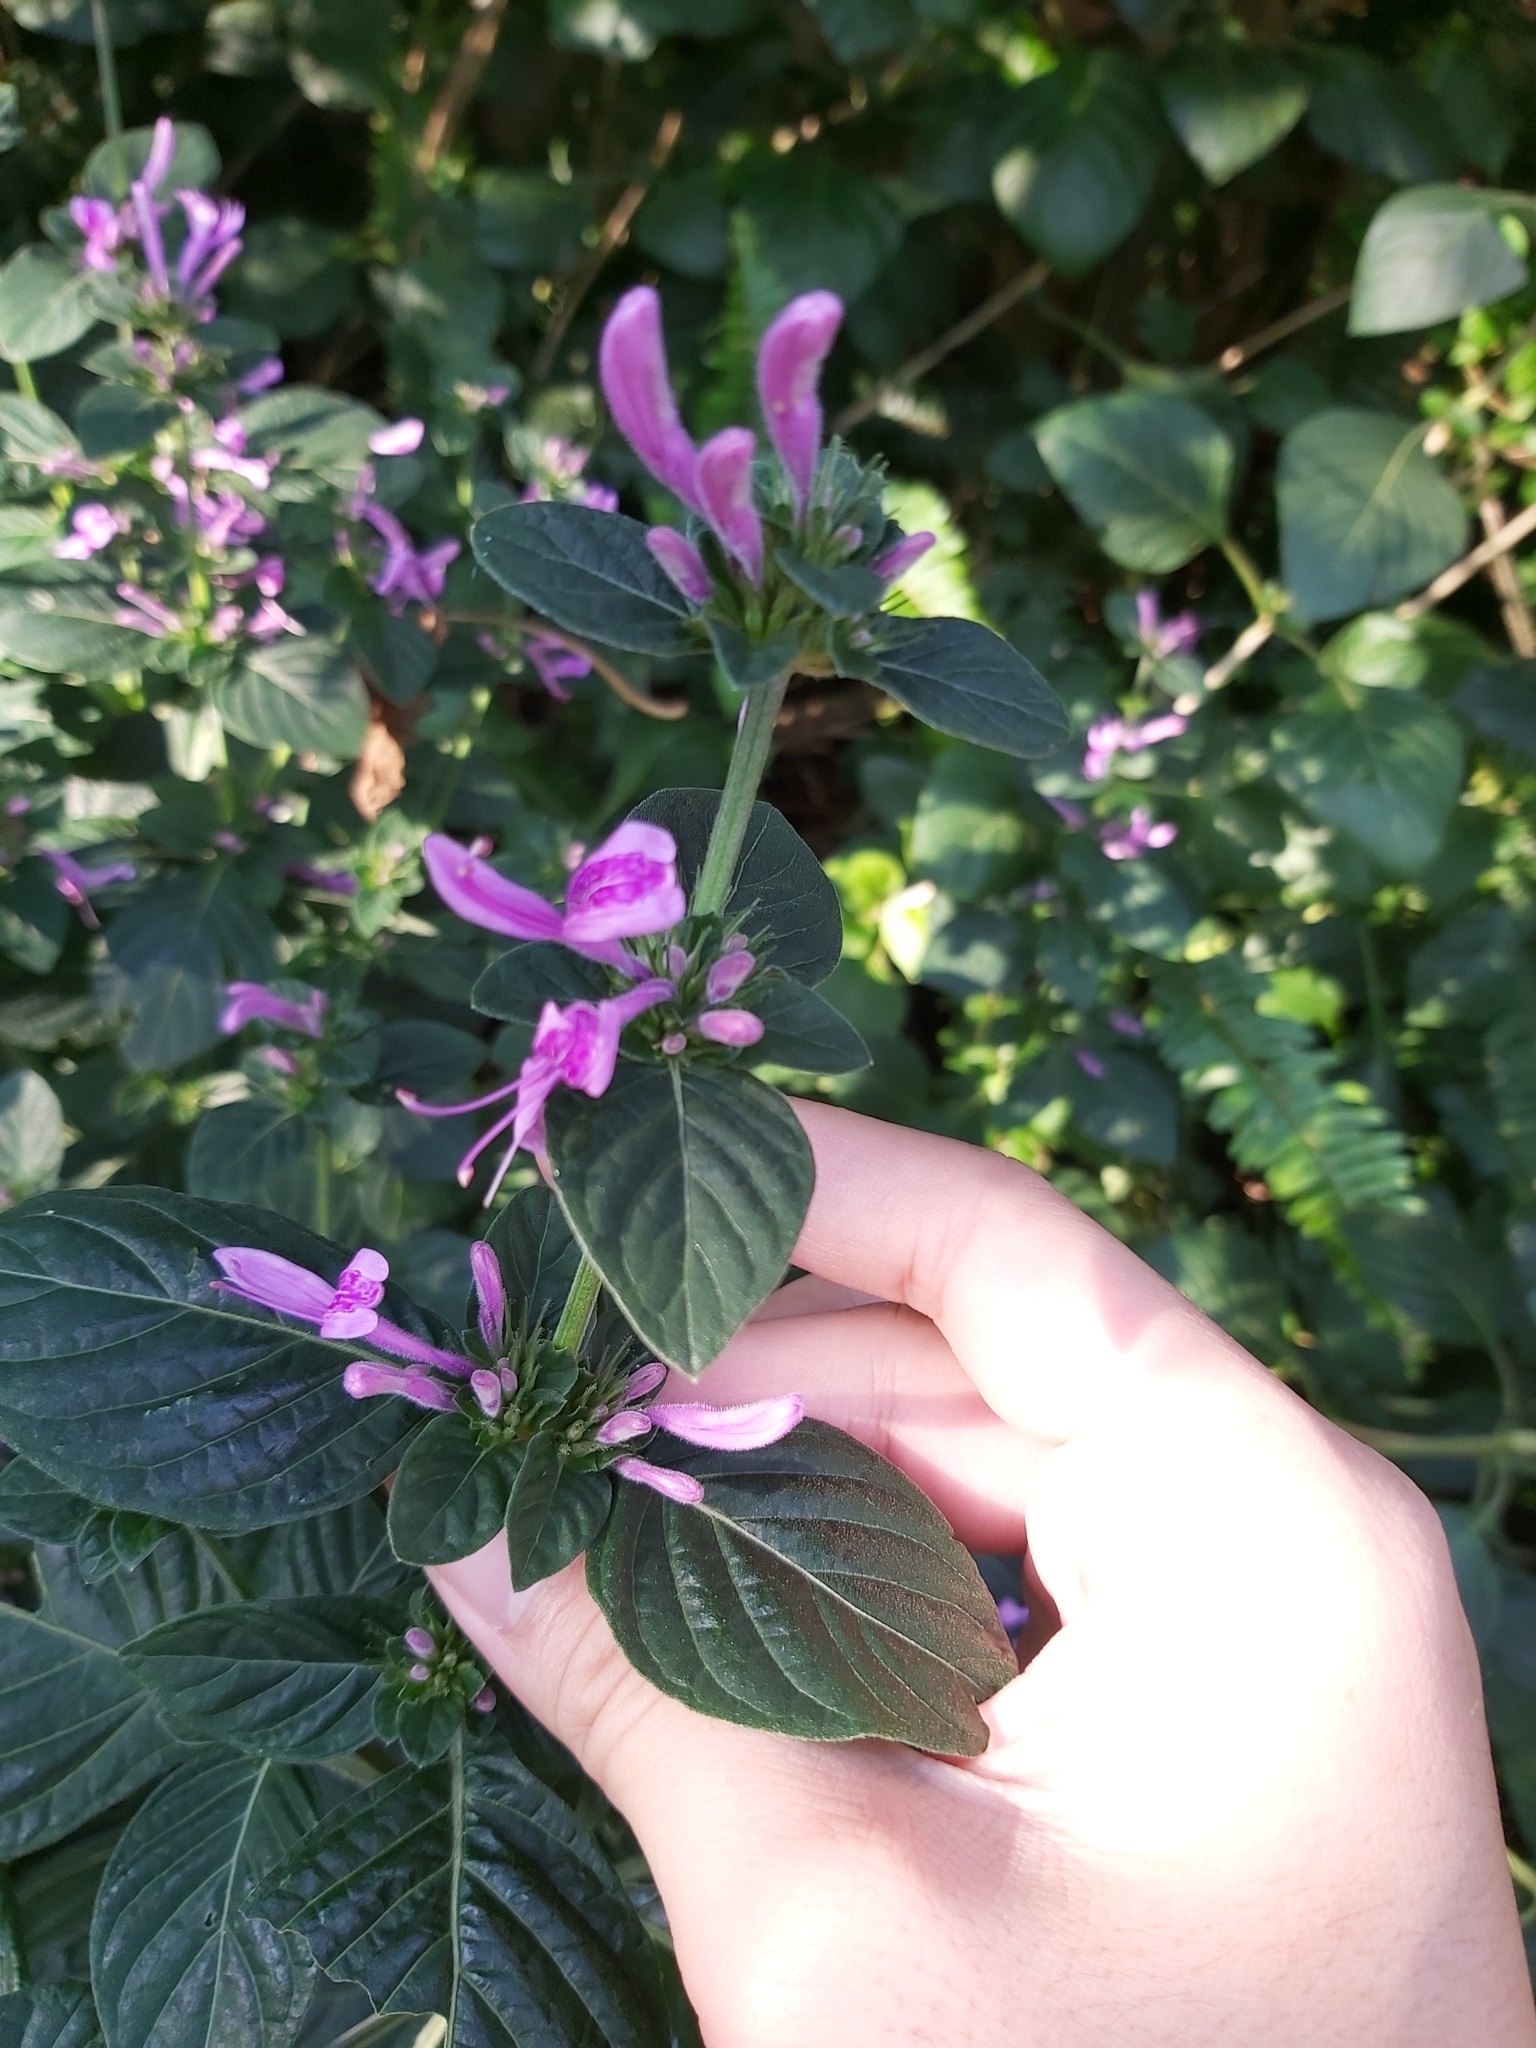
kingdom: Plantae
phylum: Tracheophyta
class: Magnoliopsida
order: Lamiales
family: Acanthaceae
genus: Hypoestes
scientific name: Hypoestes aristata
